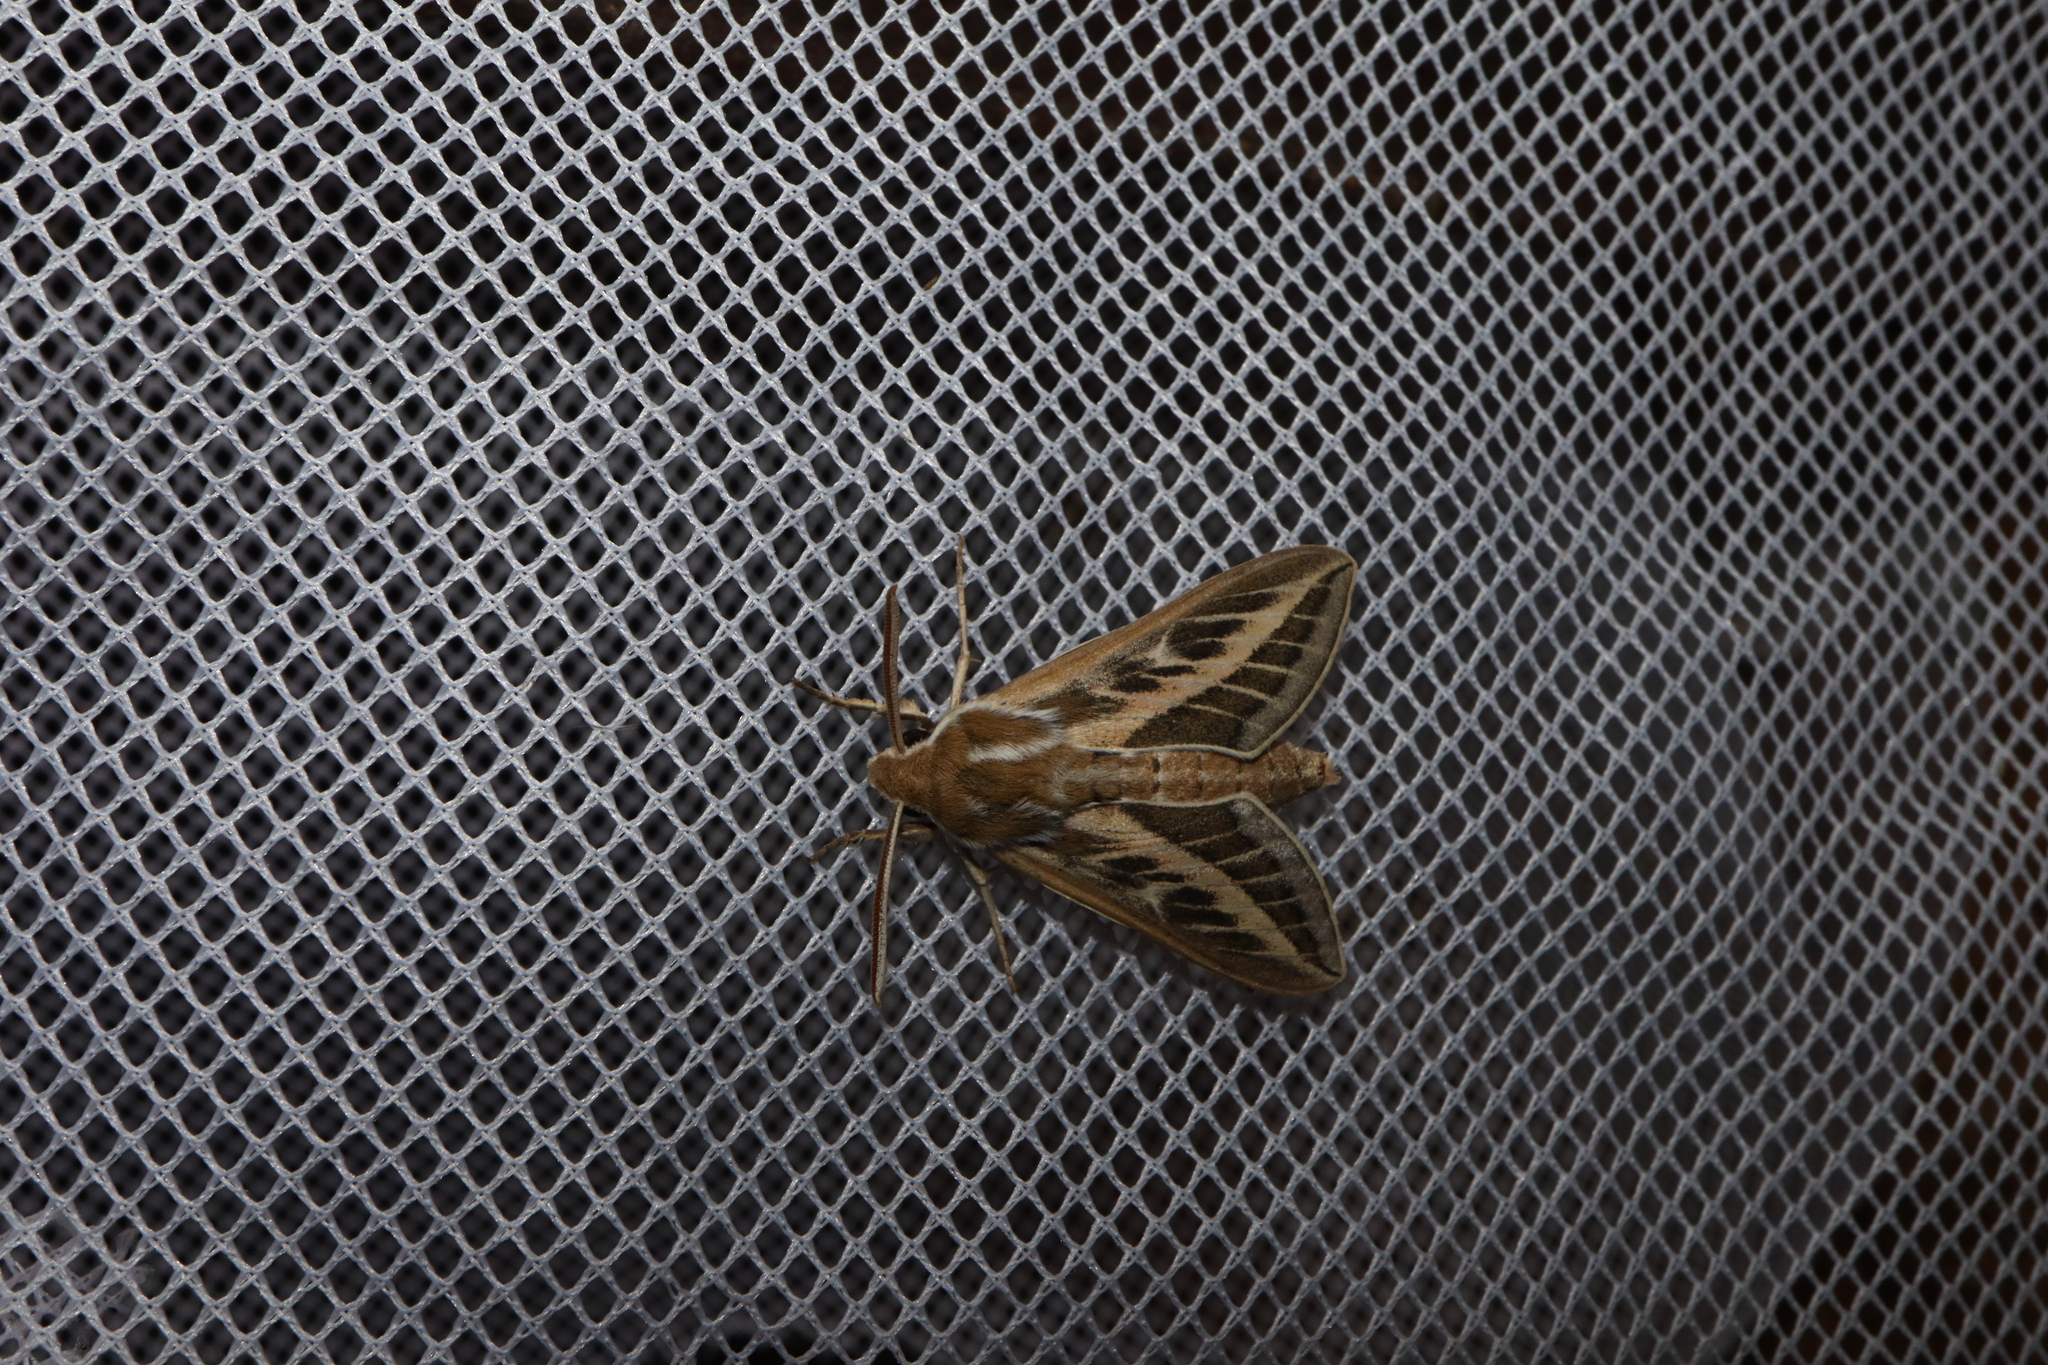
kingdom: Animalia
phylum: Arthropoda
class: Insecta
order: Lepidoptera
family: Sphingidae
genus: Hyles
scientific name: Hyles livornicoides
